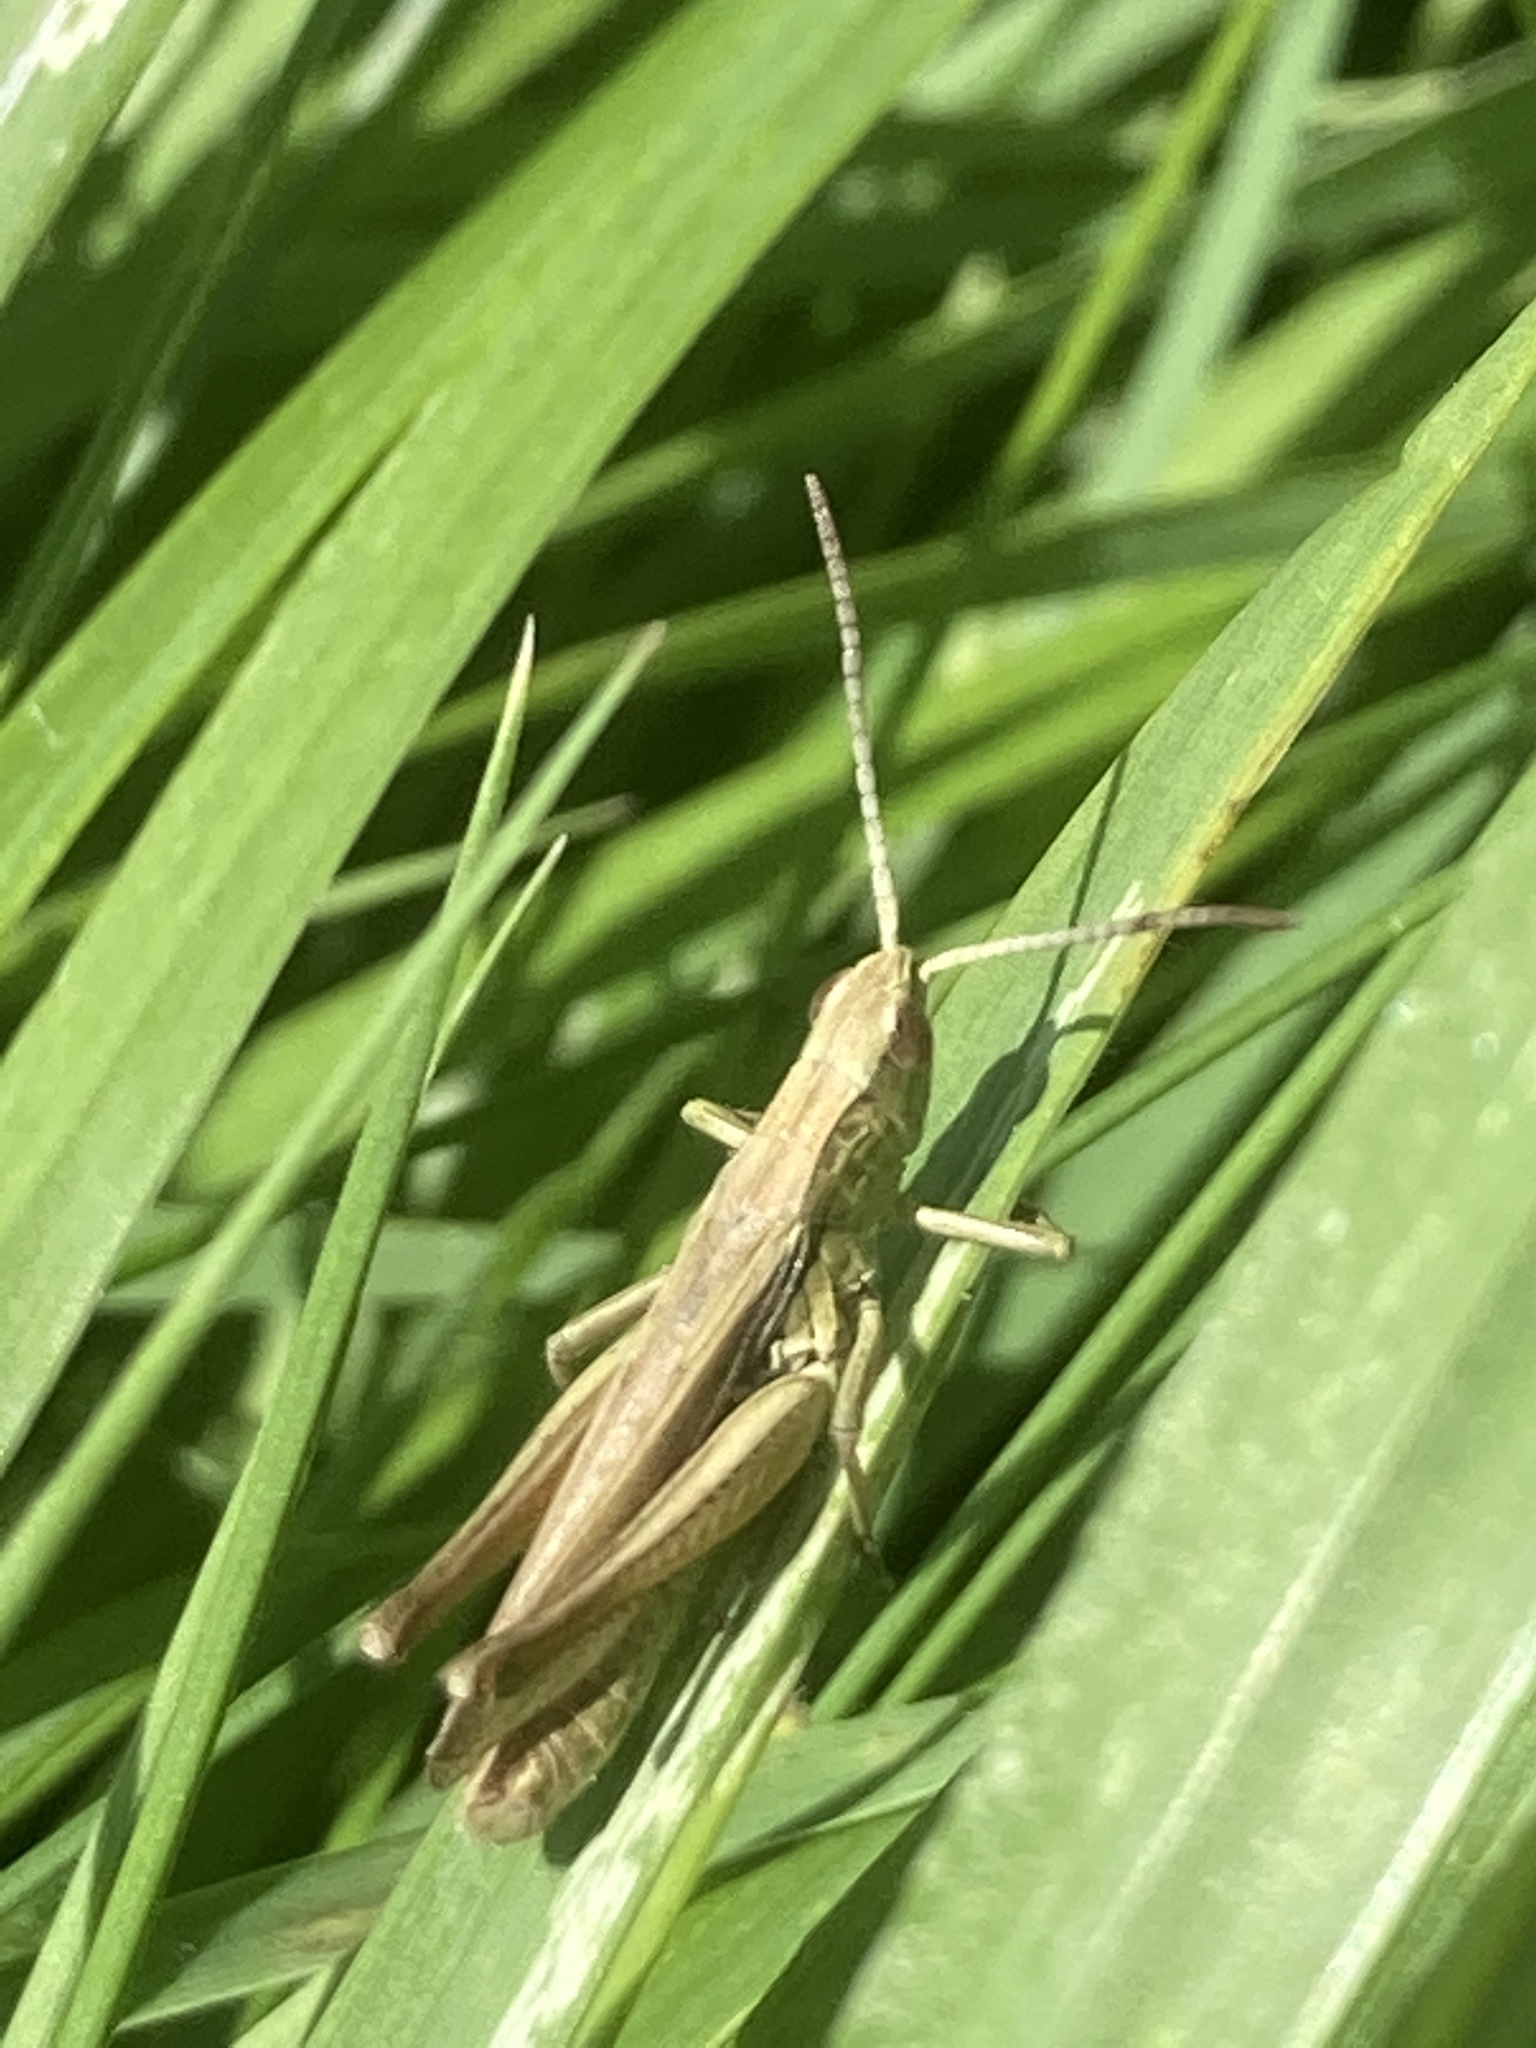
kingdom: Animalia
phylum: Arthropoda
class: Insecta
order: Orthoptera
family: Acrididae
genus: Chorthippus
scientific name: Chorthippus albomarginatus
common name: Lesser marsh grasshopper
